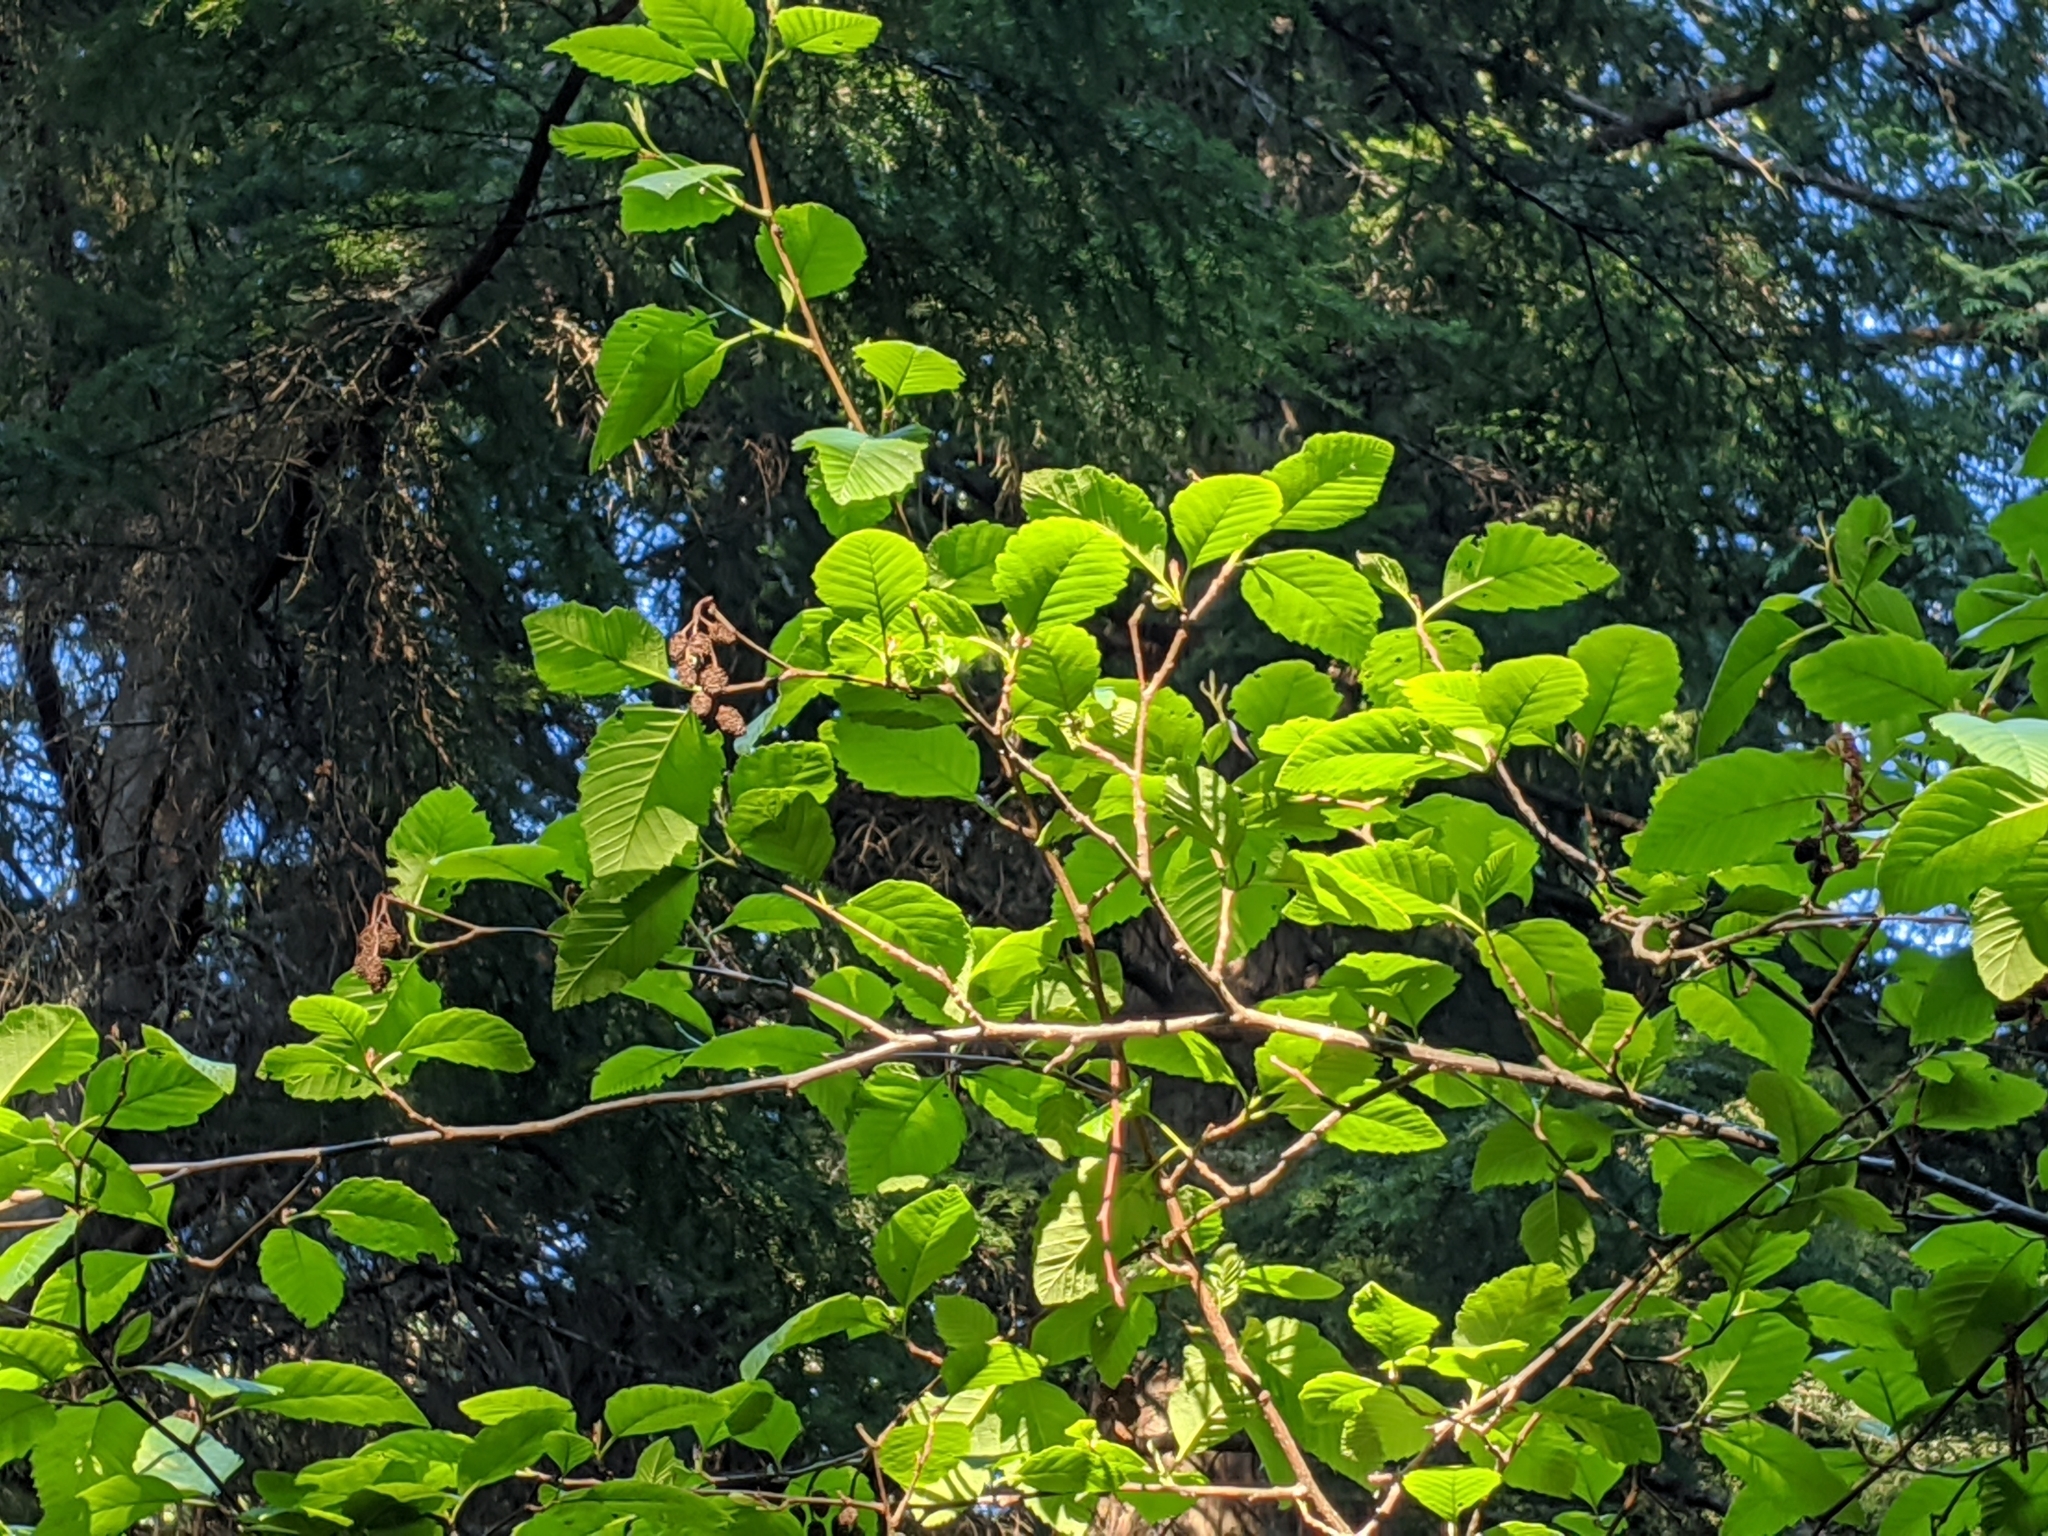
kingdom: Plantae
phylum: Tracheophyta
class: Magnoliopsida
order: Fagales
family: Betulaceae
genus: Alnus
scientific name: Alnus rubra
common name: Red alder
